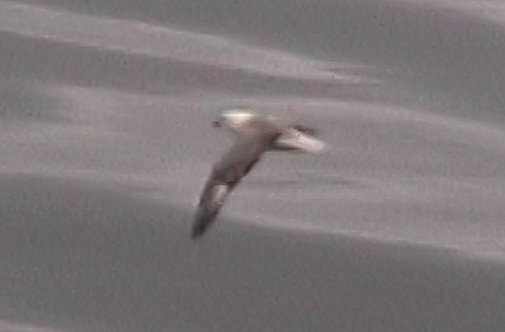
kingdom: Animalia
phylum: Chordata
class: Aves
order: Procellariiformes
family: Procellariidae
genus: Fulmarus
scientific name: Fulmarus glacialis
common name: Northern fulmar
